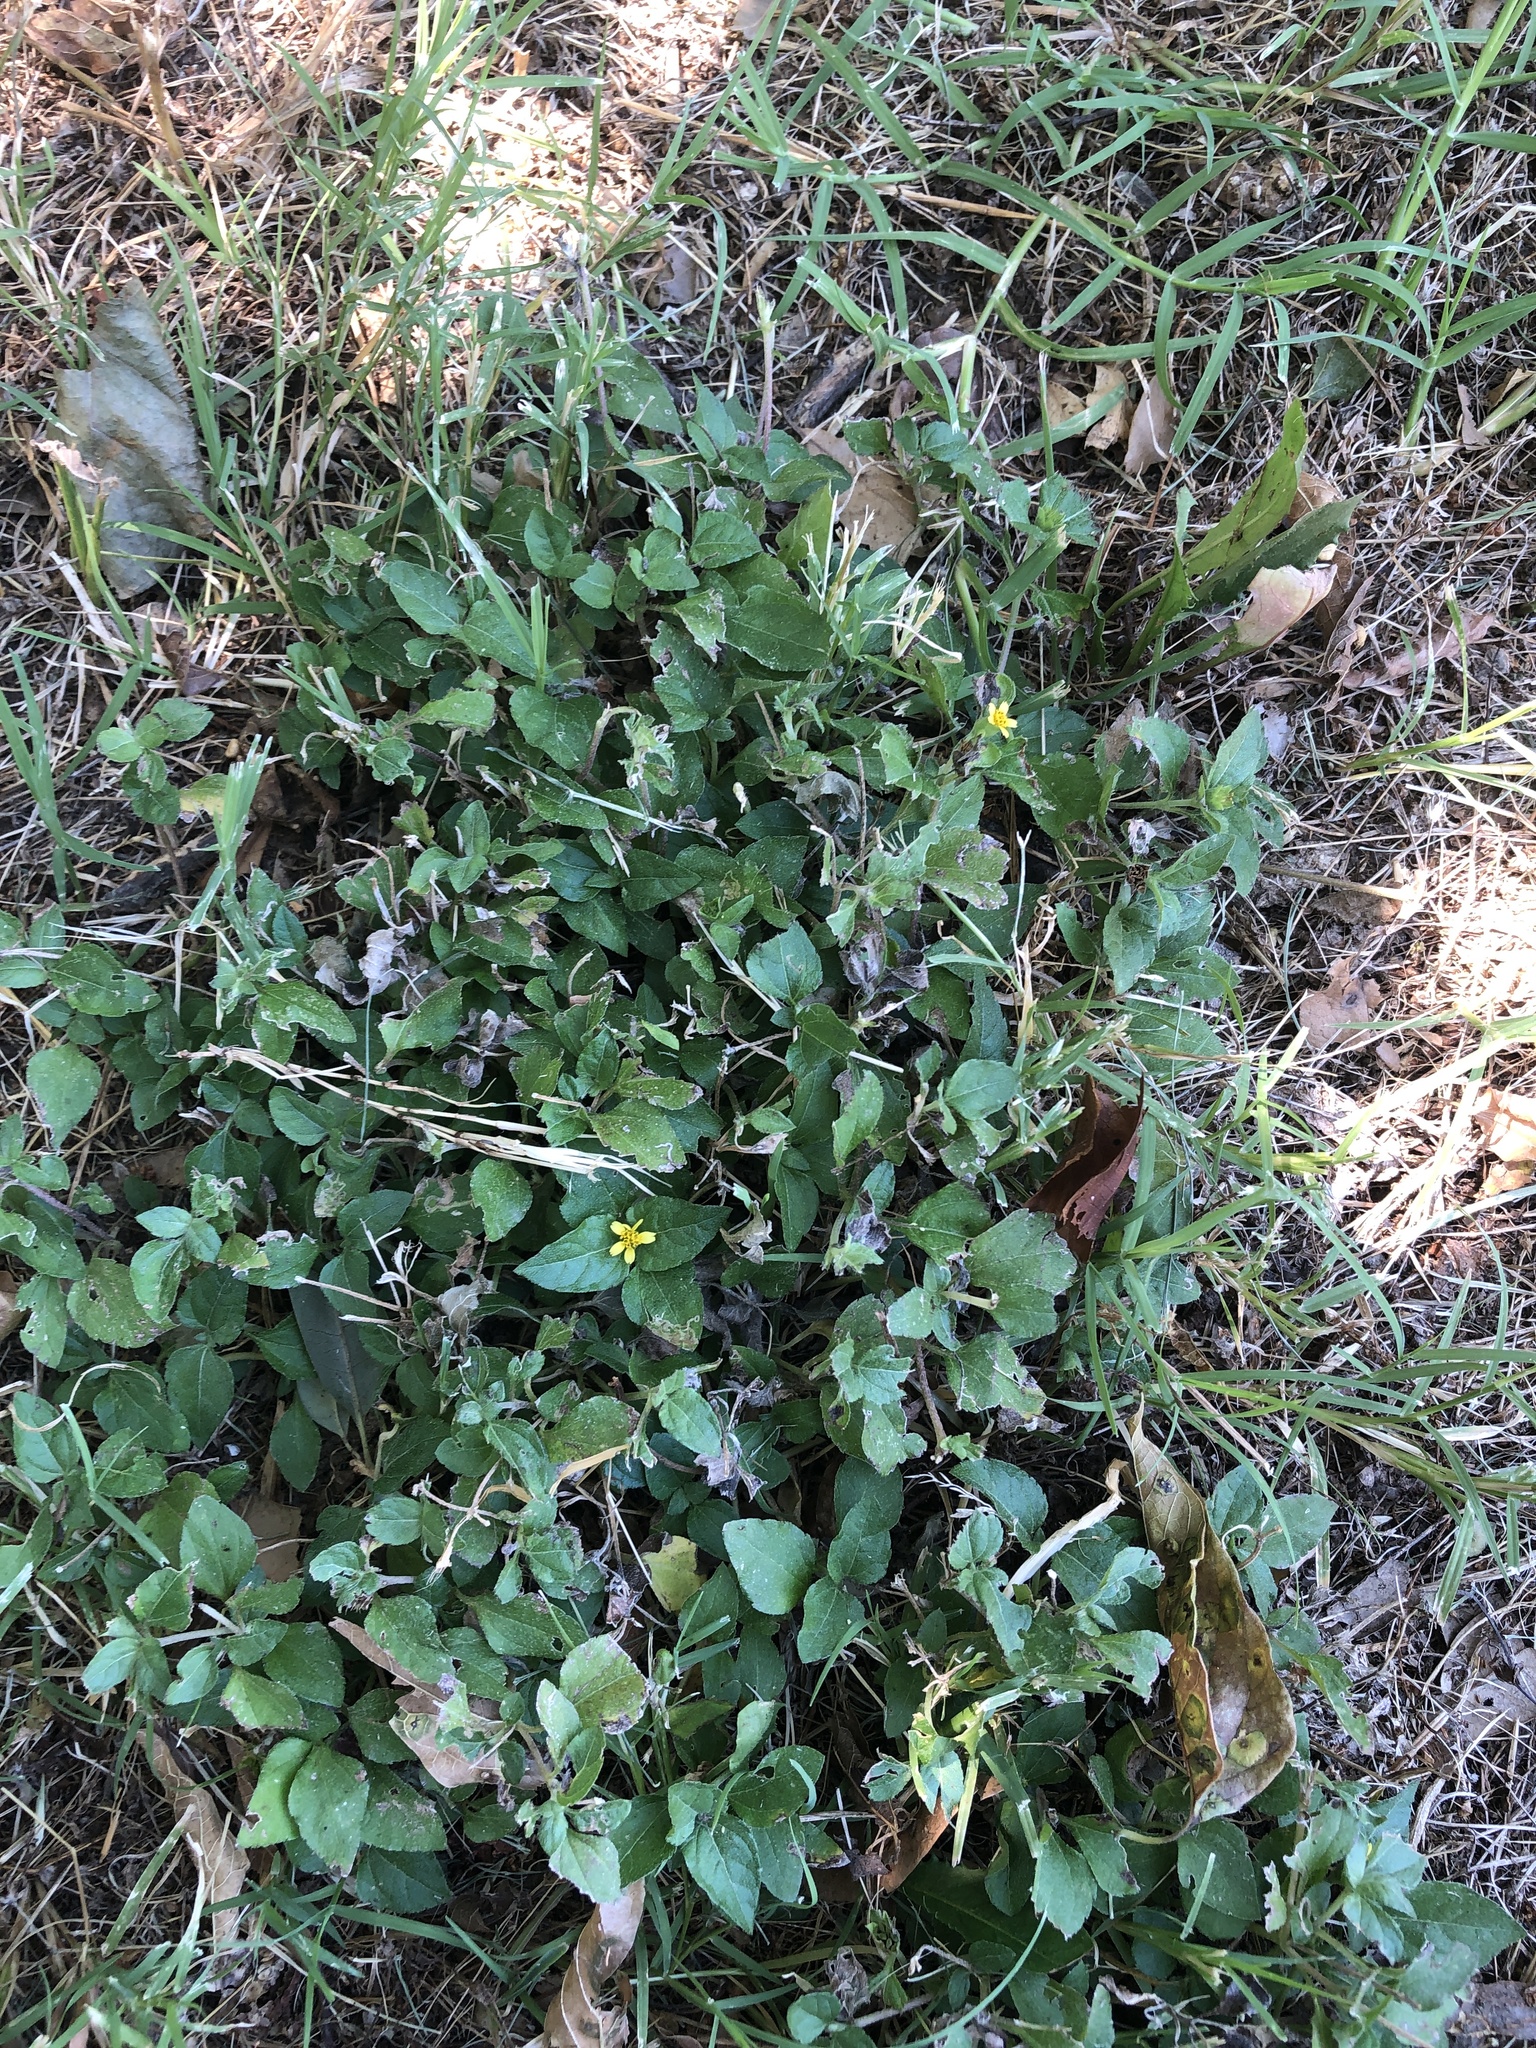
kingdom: Plantae
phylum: Tracheophyta
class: Magnoliopsida
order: Asterales
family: Asteraceae
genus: Calyptocarpus
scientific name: Calyptocarpus vialis
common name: Straggler daisy
